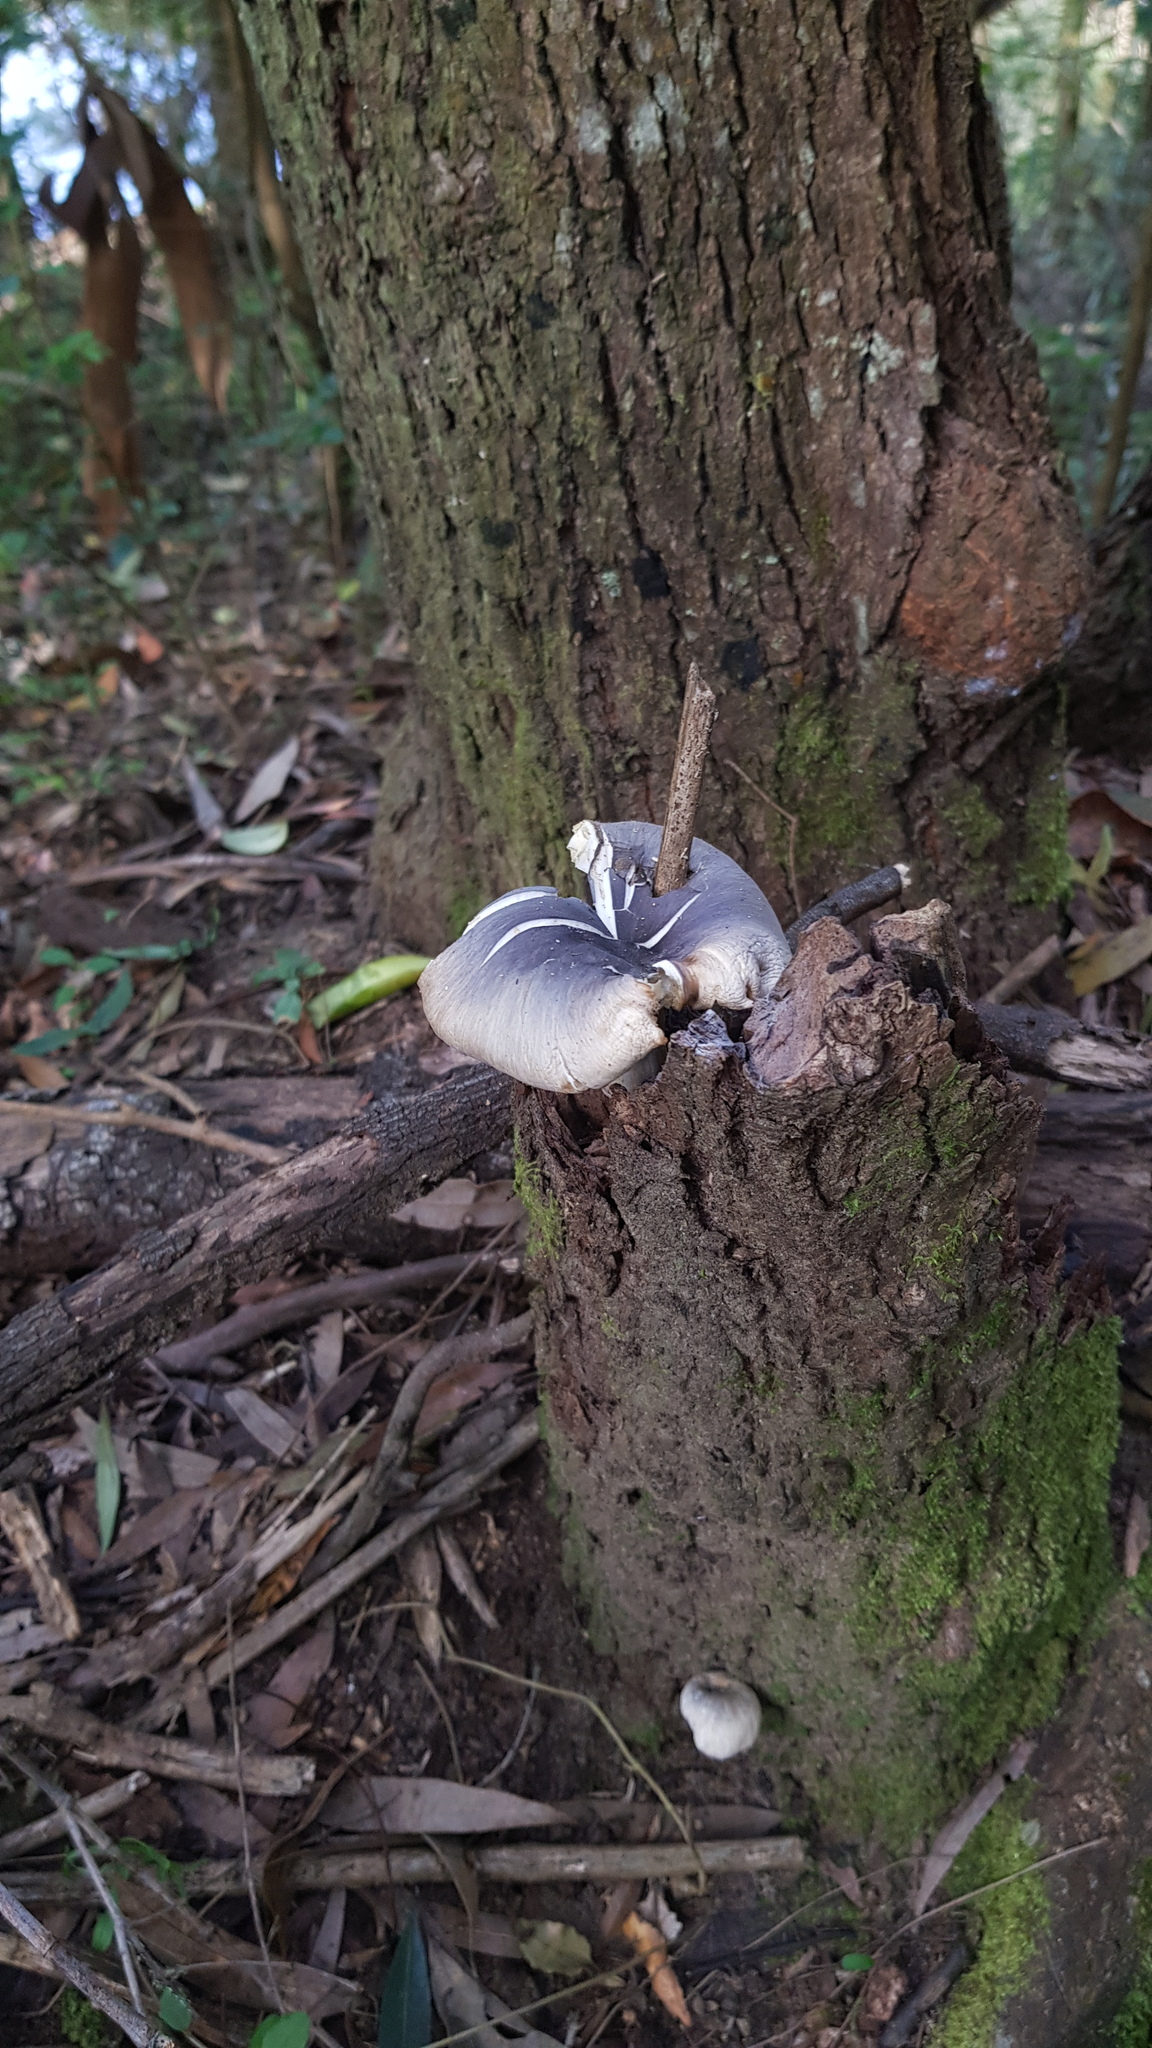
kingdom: Fungi
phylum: Basidiomycota
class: Agaricomycetes
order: Agaricales
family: Omphalotaceae
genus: Omphalotus
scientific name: Omphalotus nidiformis
